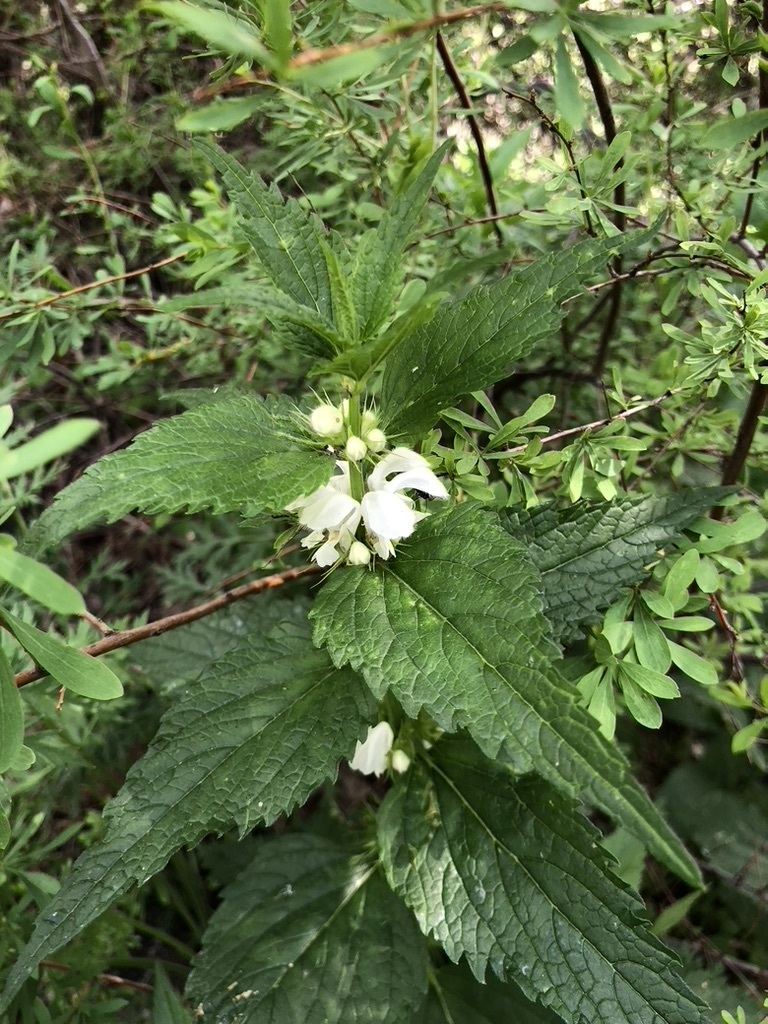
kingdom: Plantae
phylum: Tracheophyta
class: Magnoliopsida
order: Lamiales
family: Lamiaceae
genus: Lamium
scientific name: Lamium album
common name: White dead-nettle
